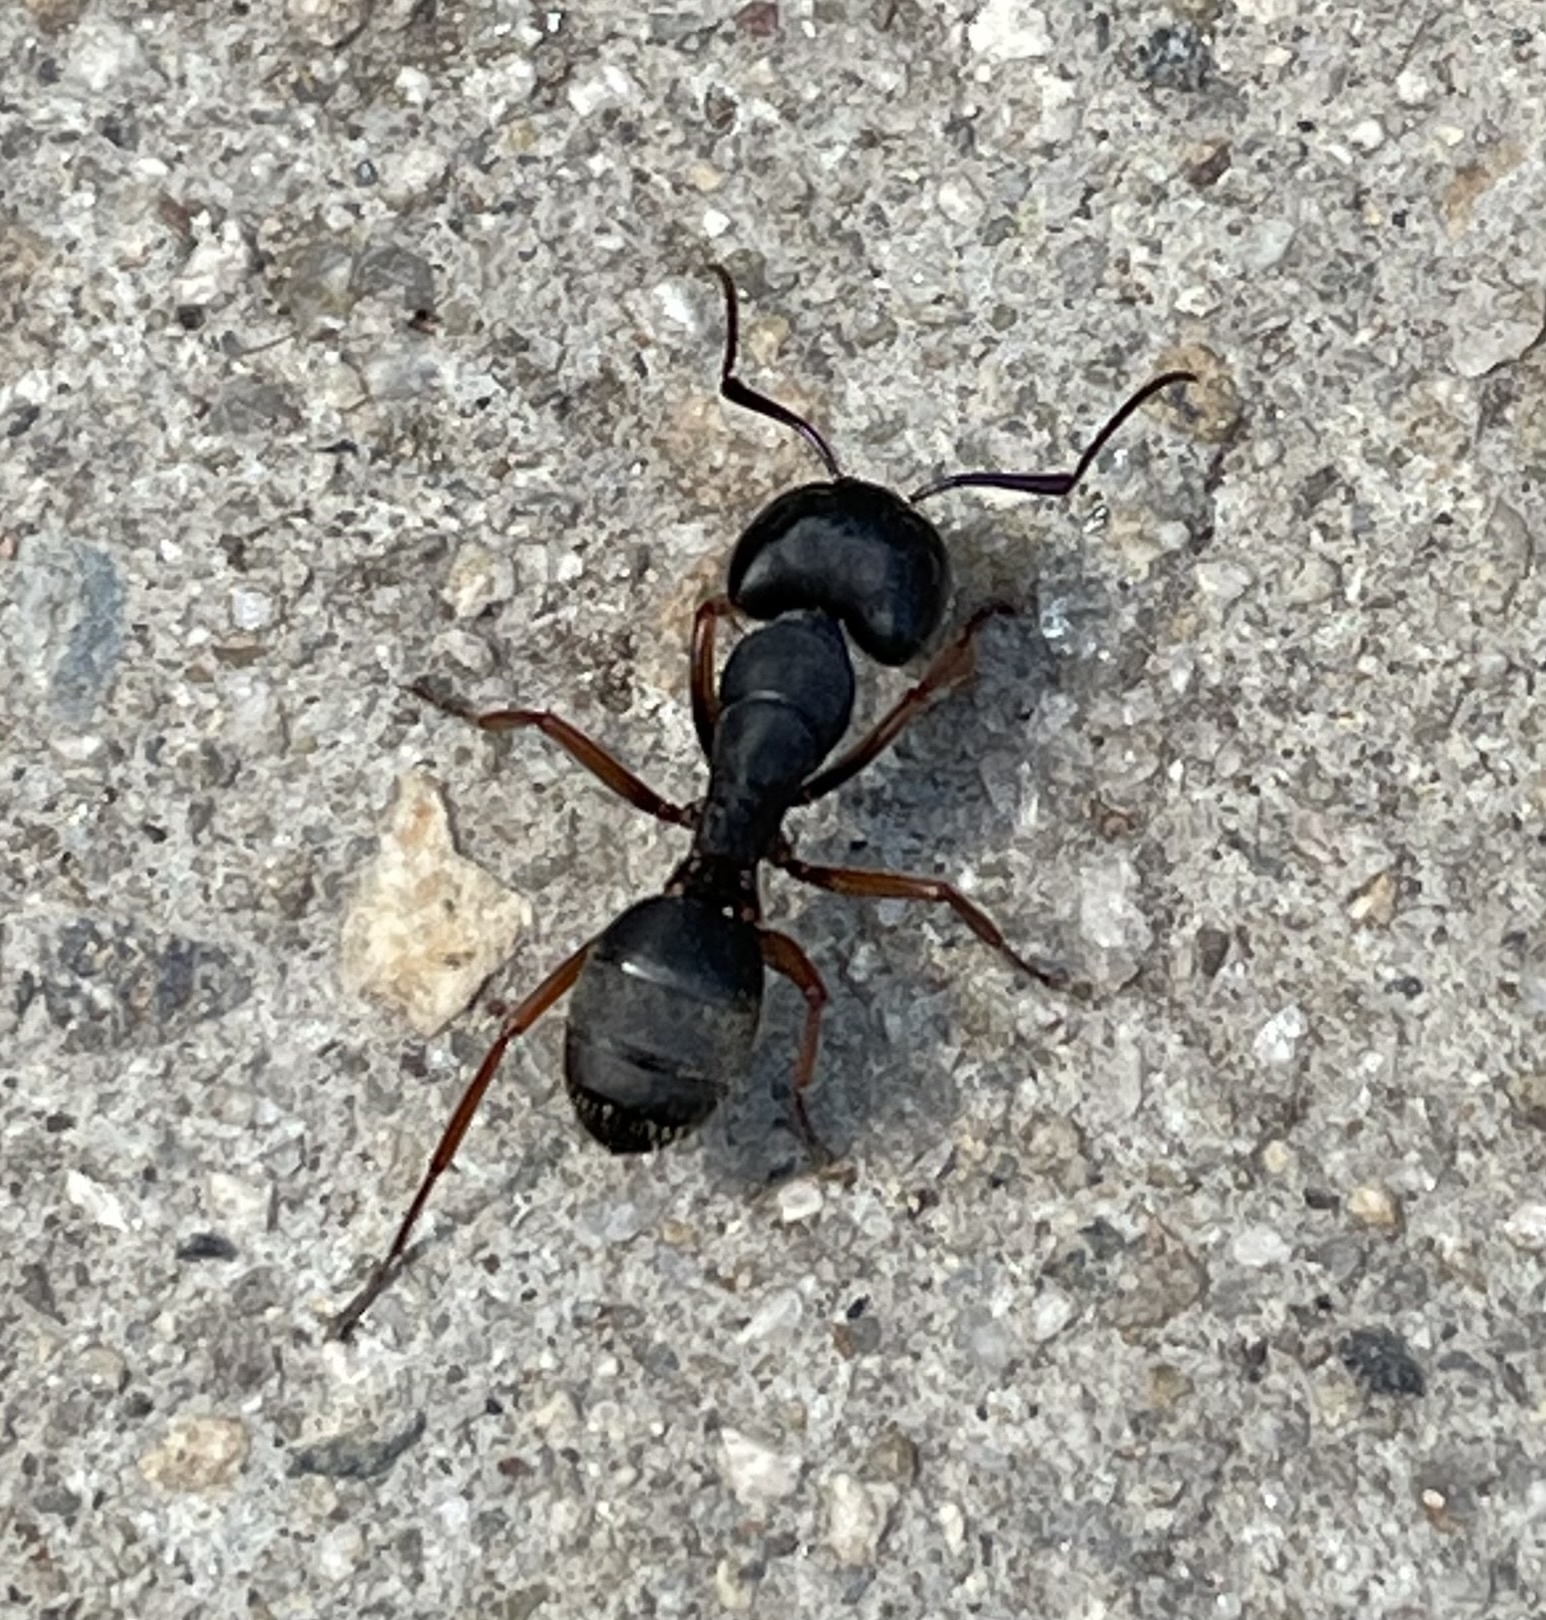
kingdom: Animalia
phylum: Arthropoda
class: Insecta
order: Hymenoptera
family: Formicidae
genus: Camponotus
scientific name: Camponotus modoc
